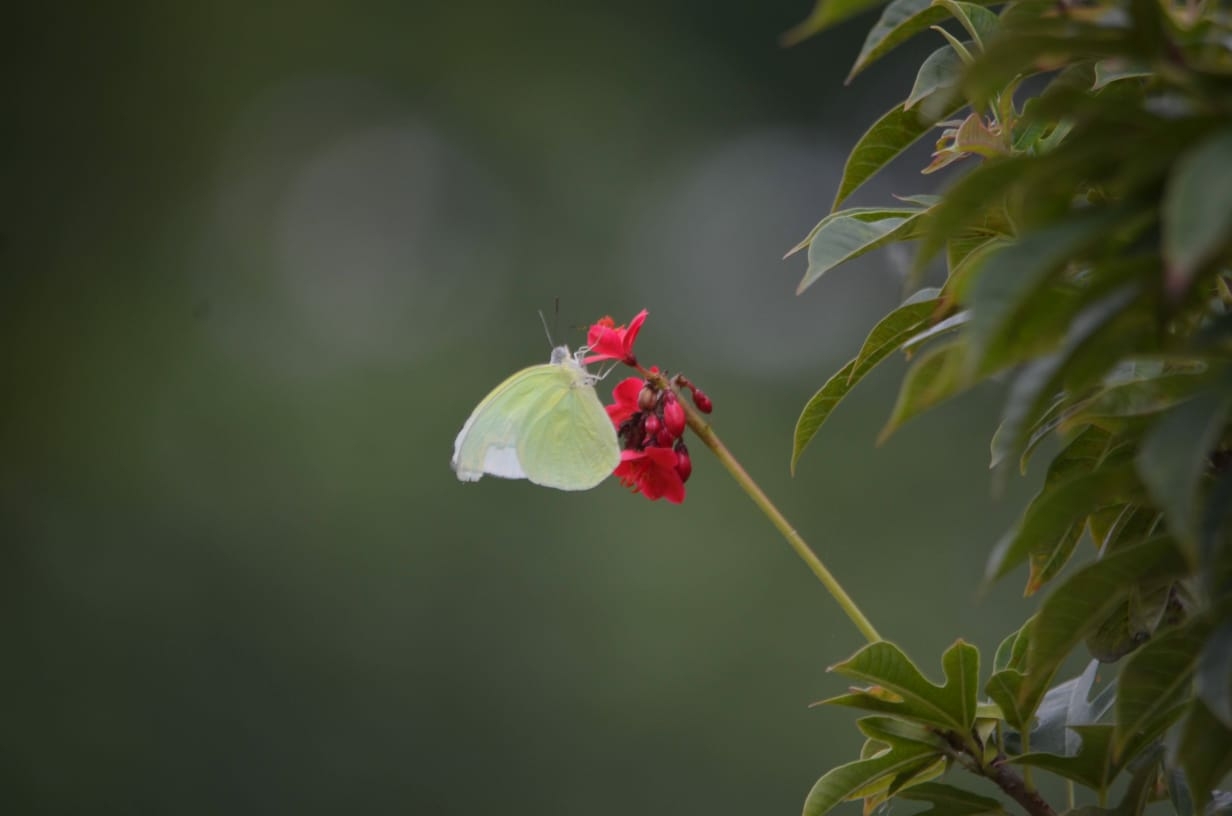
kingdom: Animalia
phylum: Arthropoda
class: Insecta
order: Lepidoptera
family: Pieridae
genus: Catopsilia
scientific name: Catopsilia pomona
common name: Common emigrant
